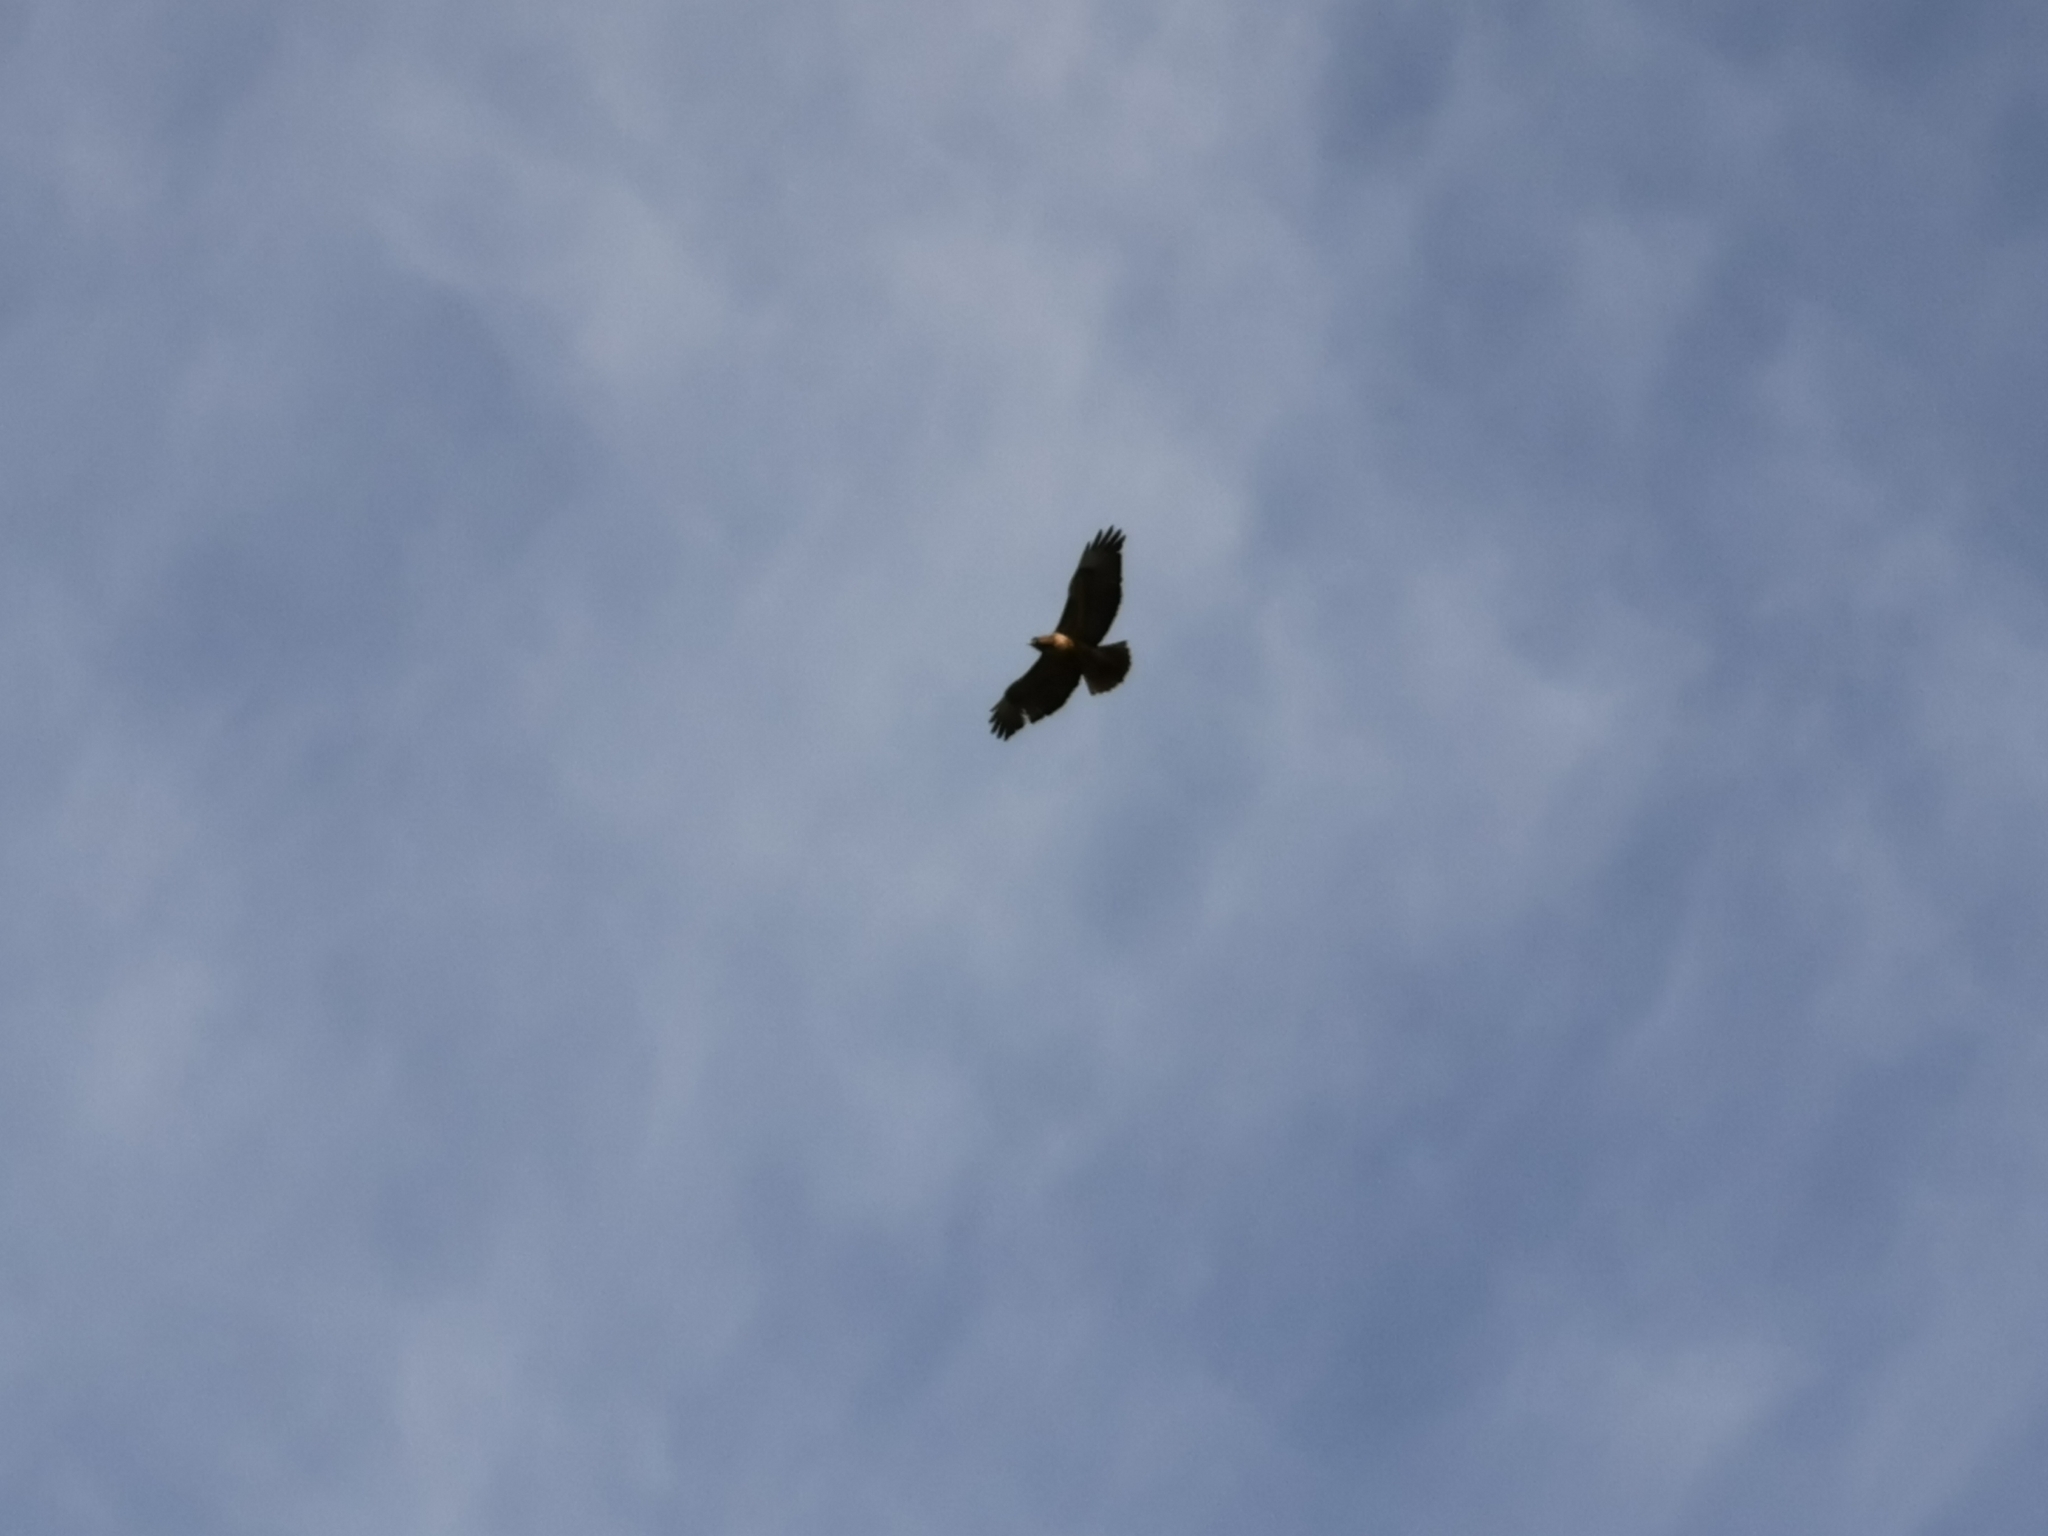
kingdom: Animalia
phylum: Chordata
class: Aves
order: Accipitriformes
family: Accipitridae
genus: Buteo
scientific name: Buteo jamaicensis
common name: Red-tailed hawk
